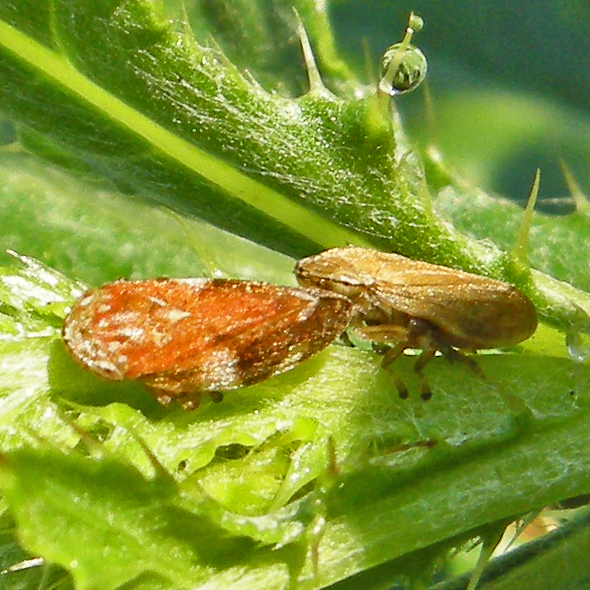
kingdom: Animalia
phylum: Arthropoda
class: Insecta
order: Hemiptera
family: Aphrophoridae
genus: Philaenus
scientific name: Philaenus spumarius
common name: Meadow spittlebug
